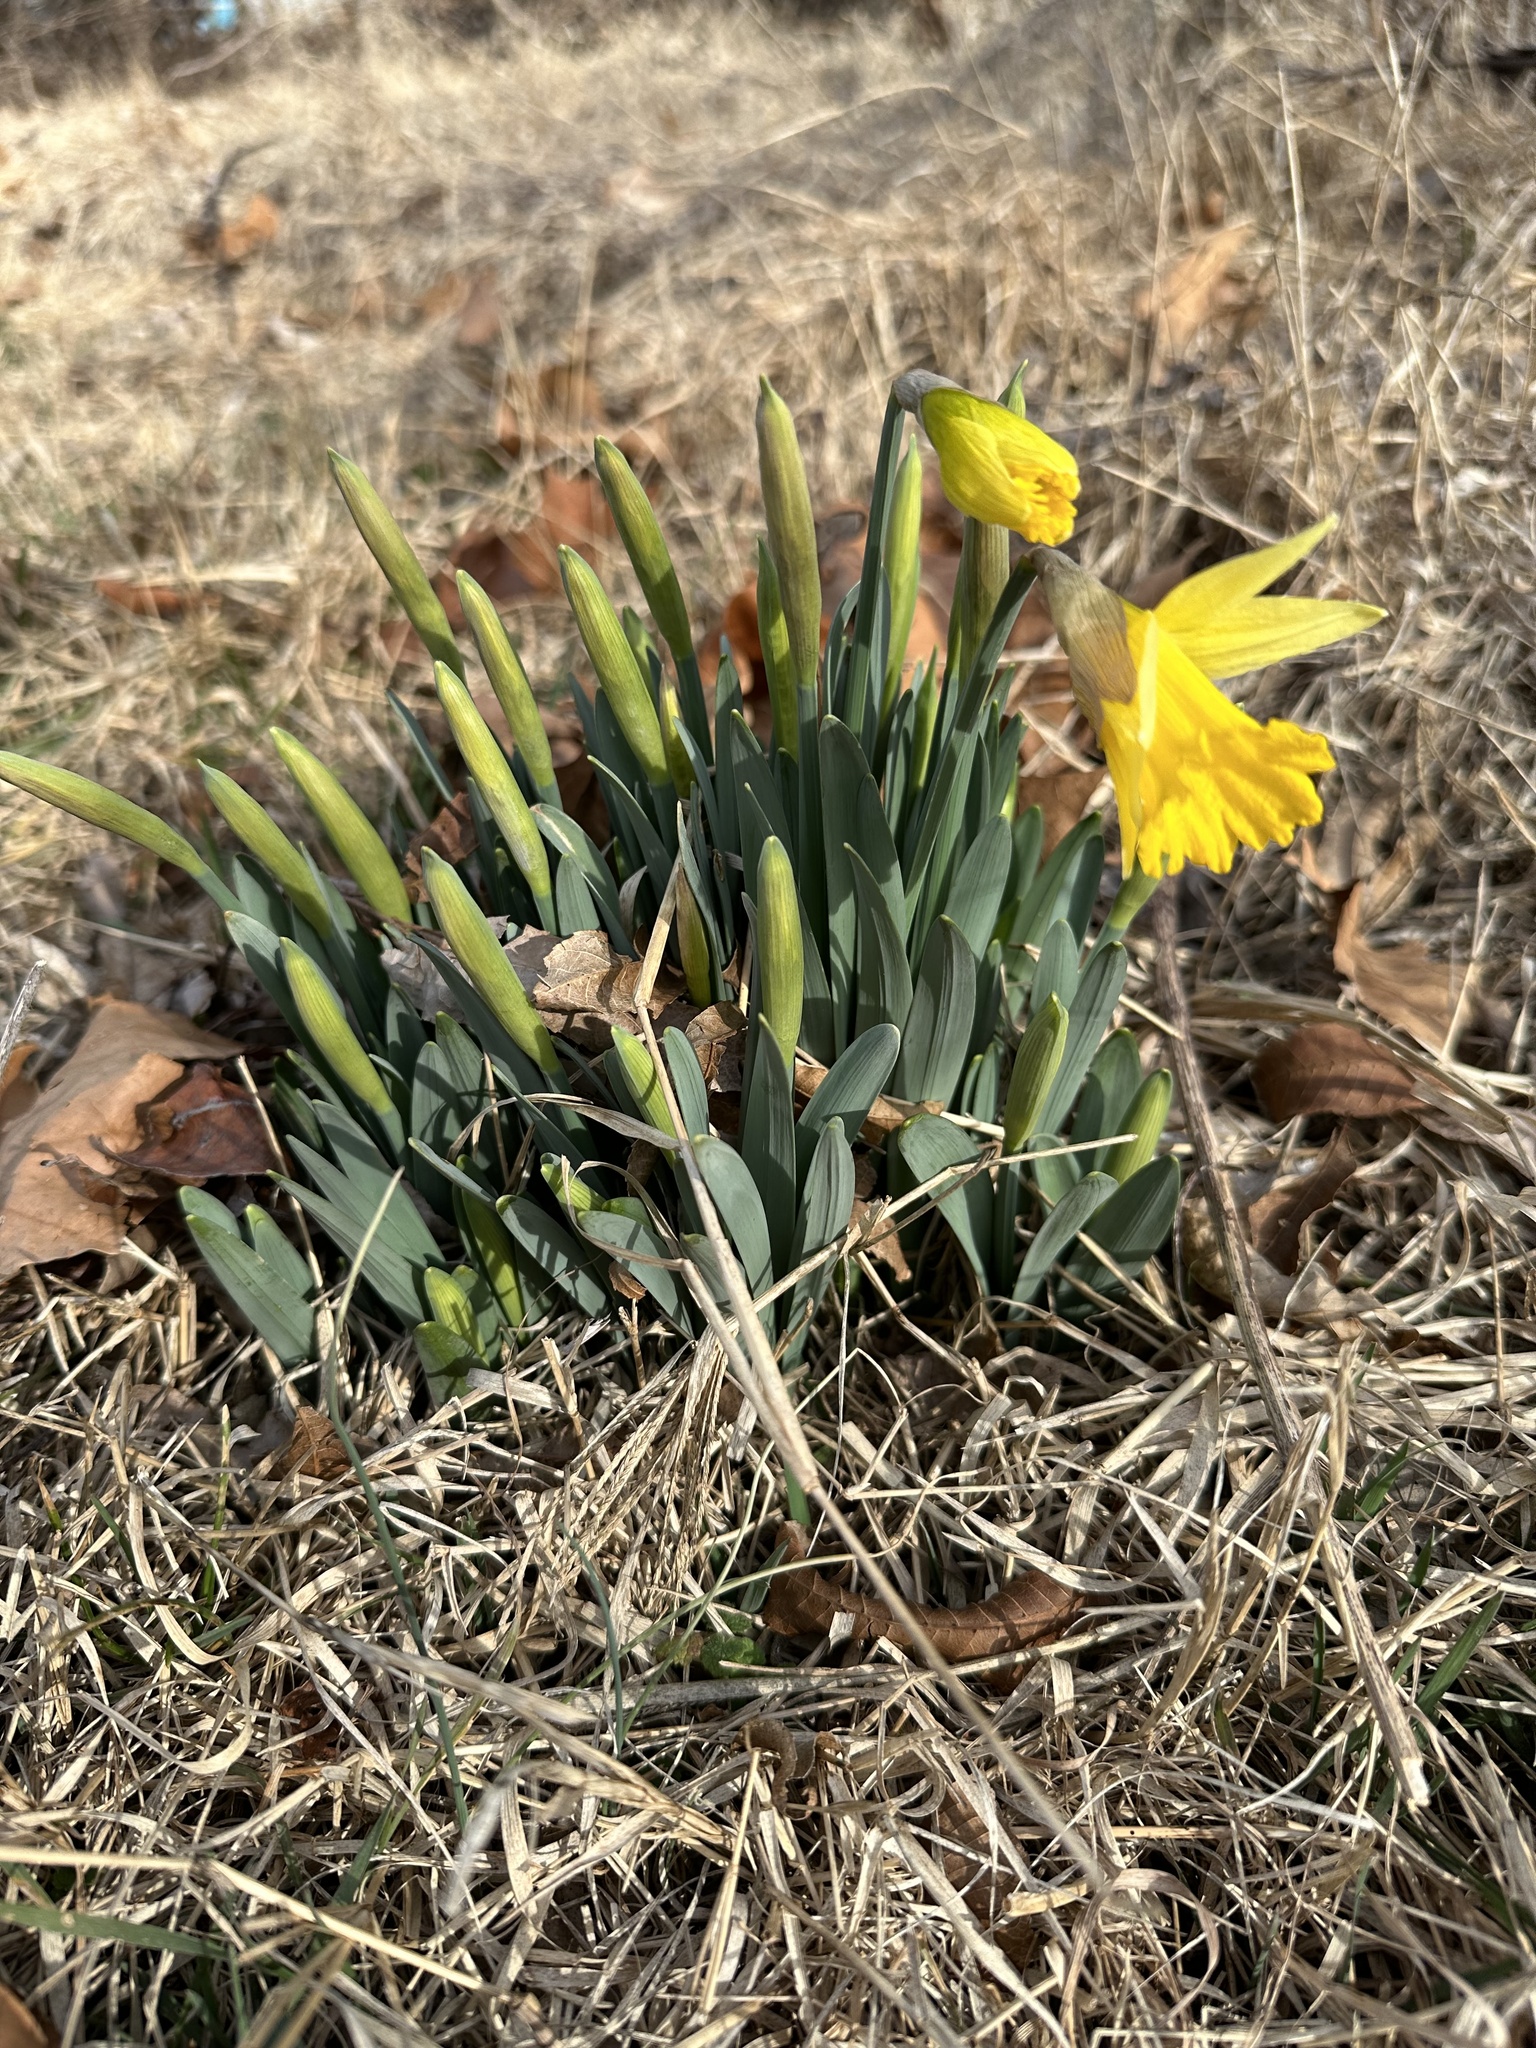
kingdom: Plantae
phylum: Tracheophyta
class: Liliopsida
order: Asparagales
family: Amaryllidaceae
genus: Narcissus
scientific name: Narcissus pseudonarcissus
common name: Daffodil
